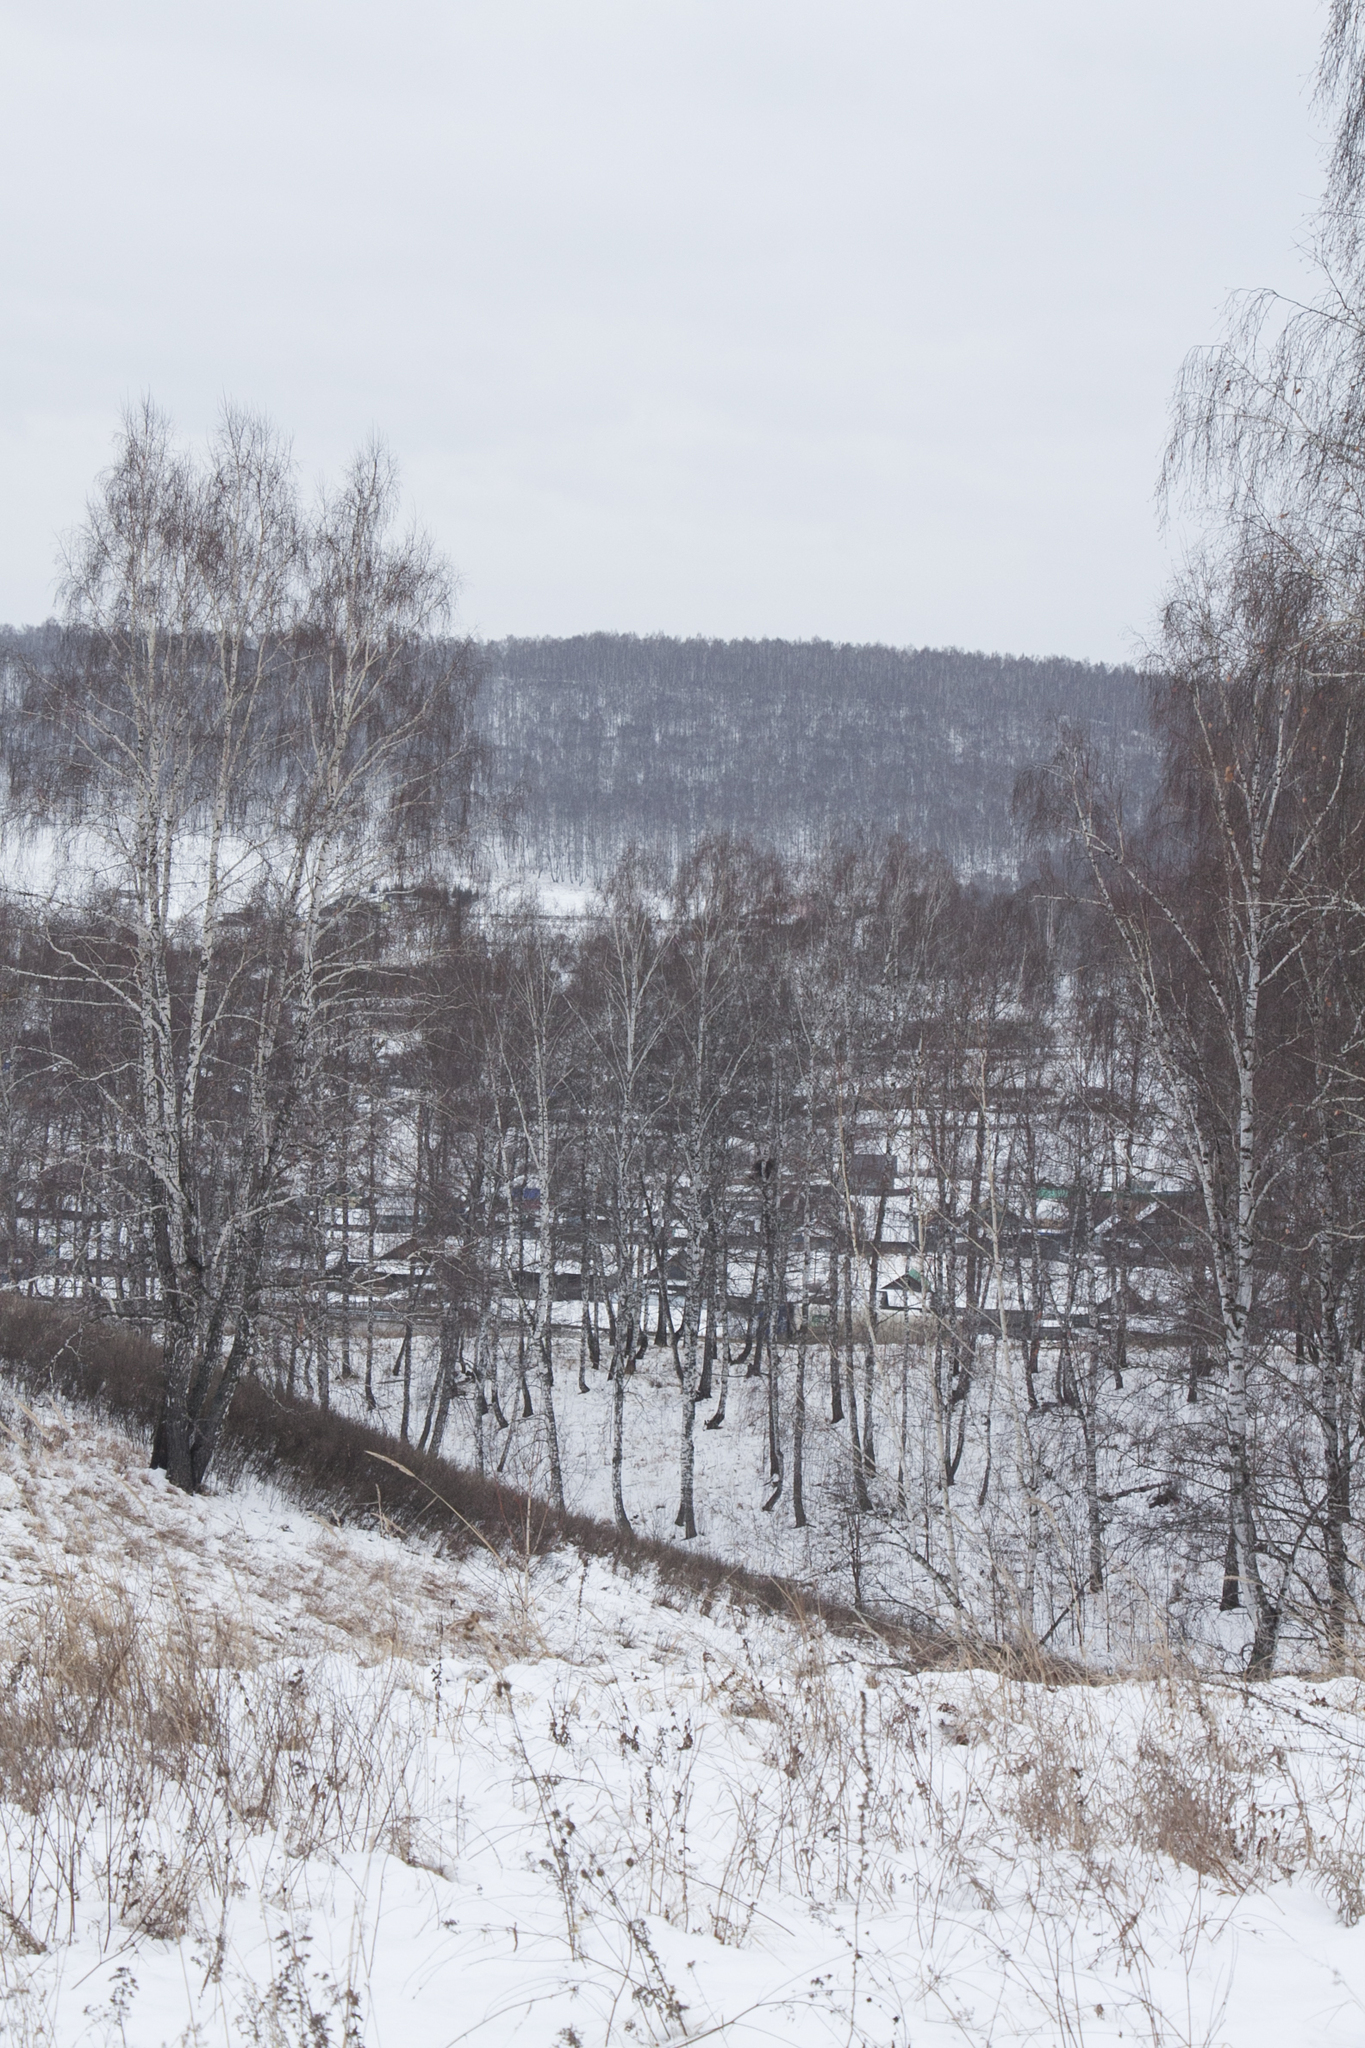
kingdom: Plantae
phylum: Tracheophyta
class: Magnoliopsida
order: Fagales
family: Betulaceae
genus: Betula
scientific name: Betula pendula
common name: Silver birch
